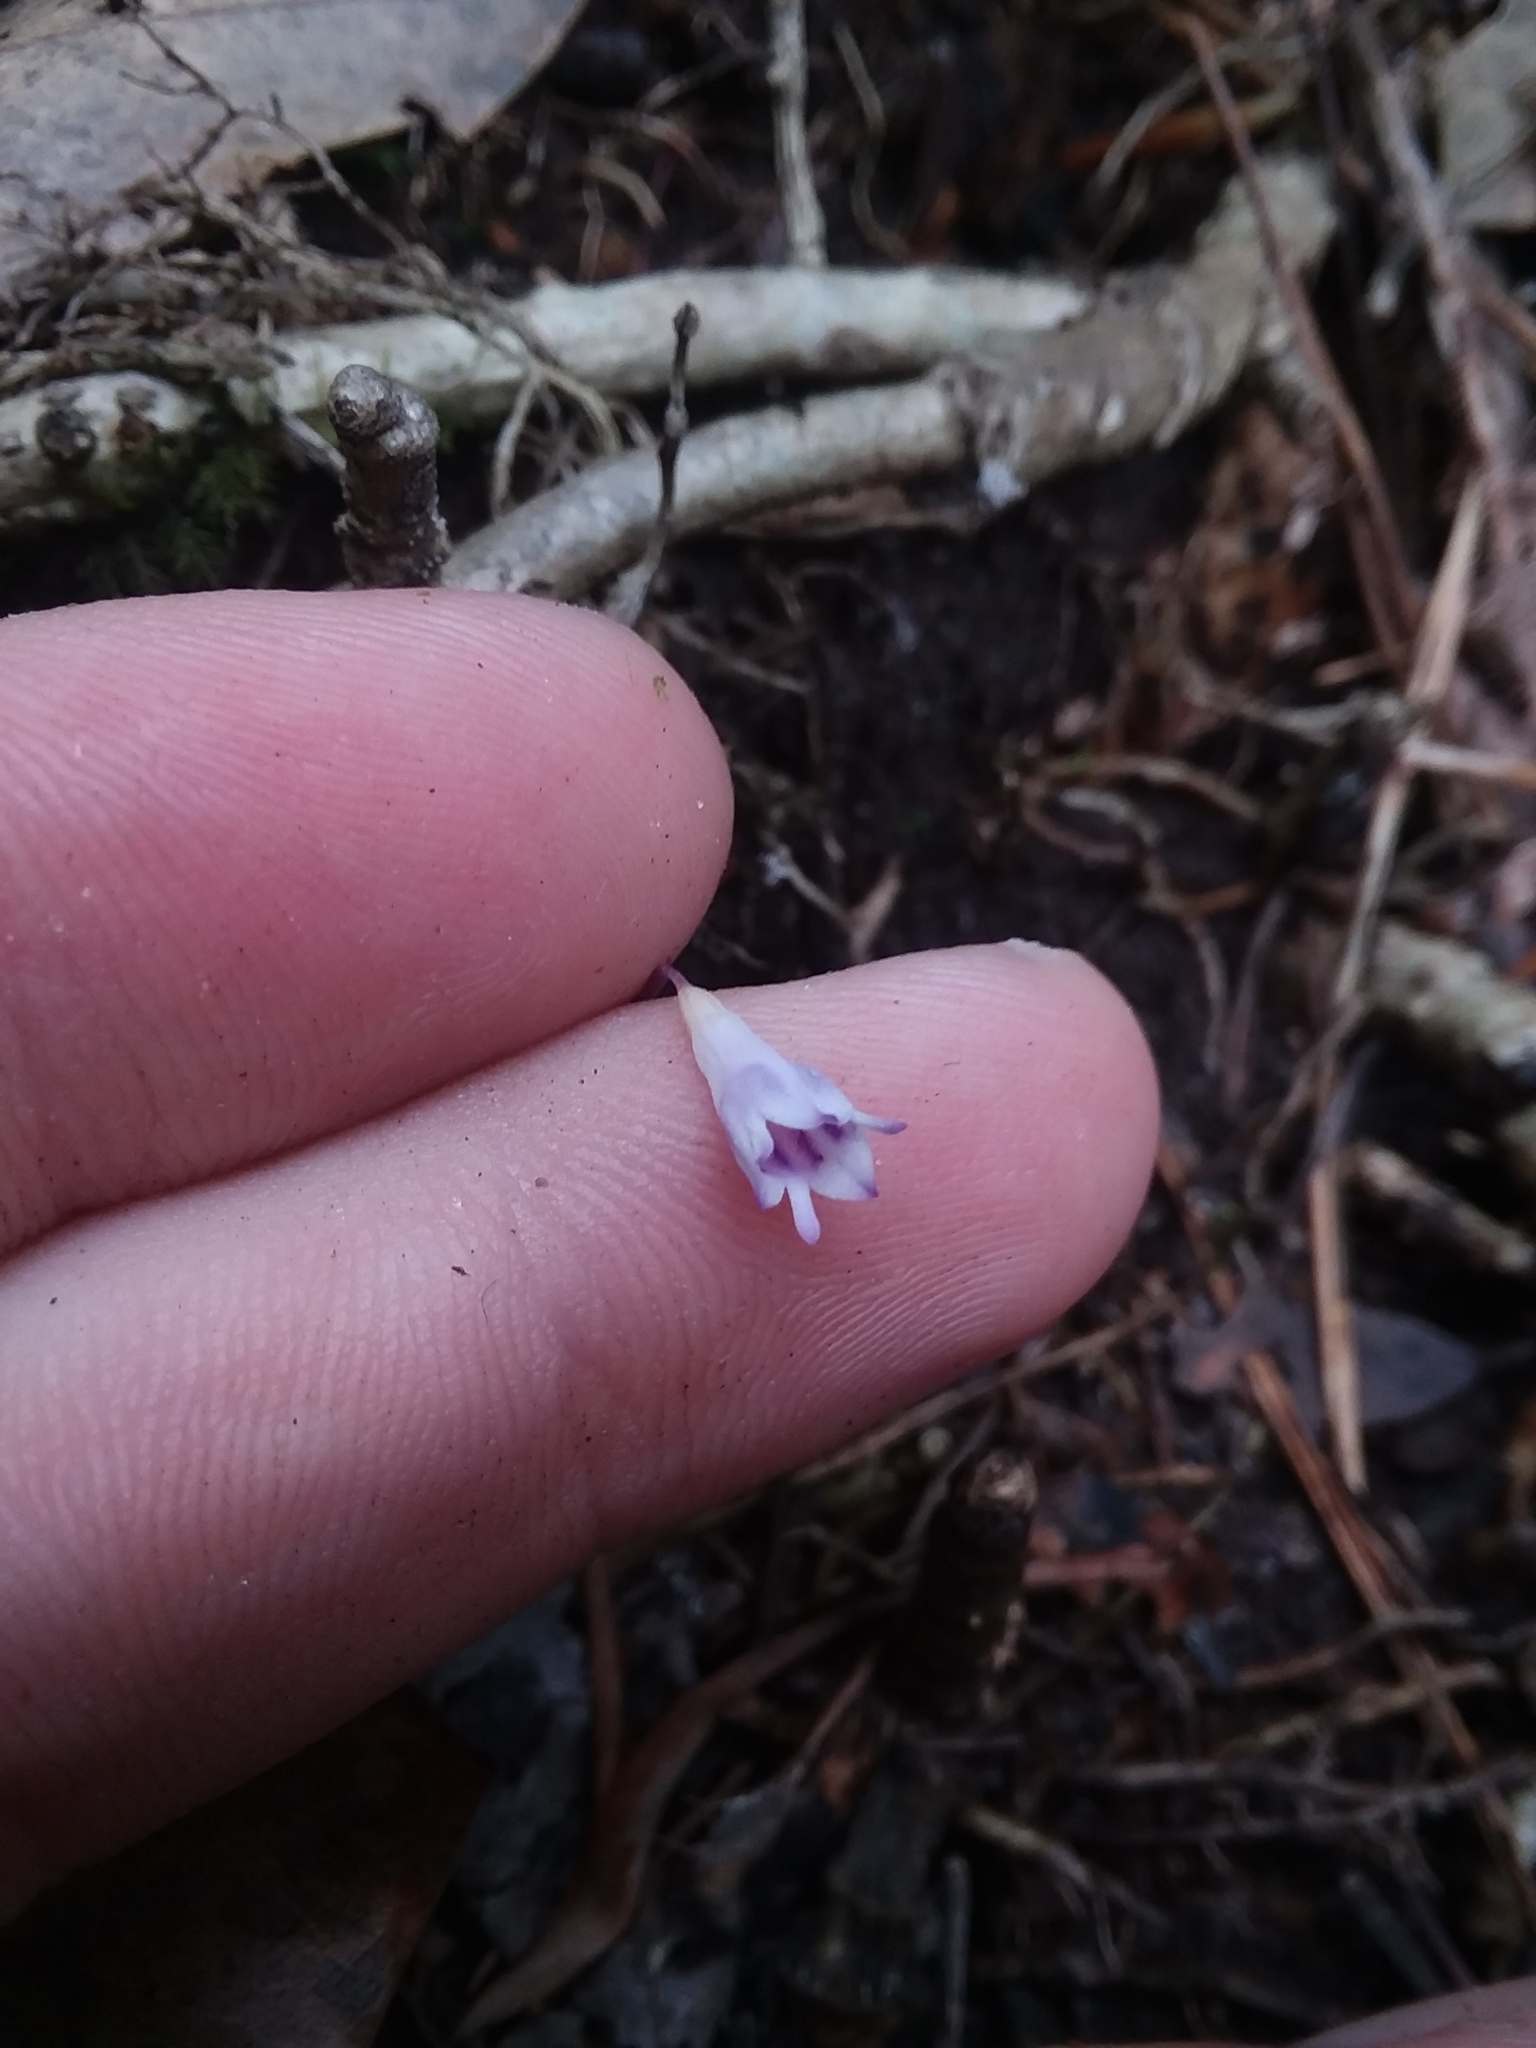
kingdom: Plantae
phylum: Tracheophyta
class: Liliopsida
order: Dioscoreales
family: Burmanniaceae
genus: Apteria
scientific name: Apteria aphylla
